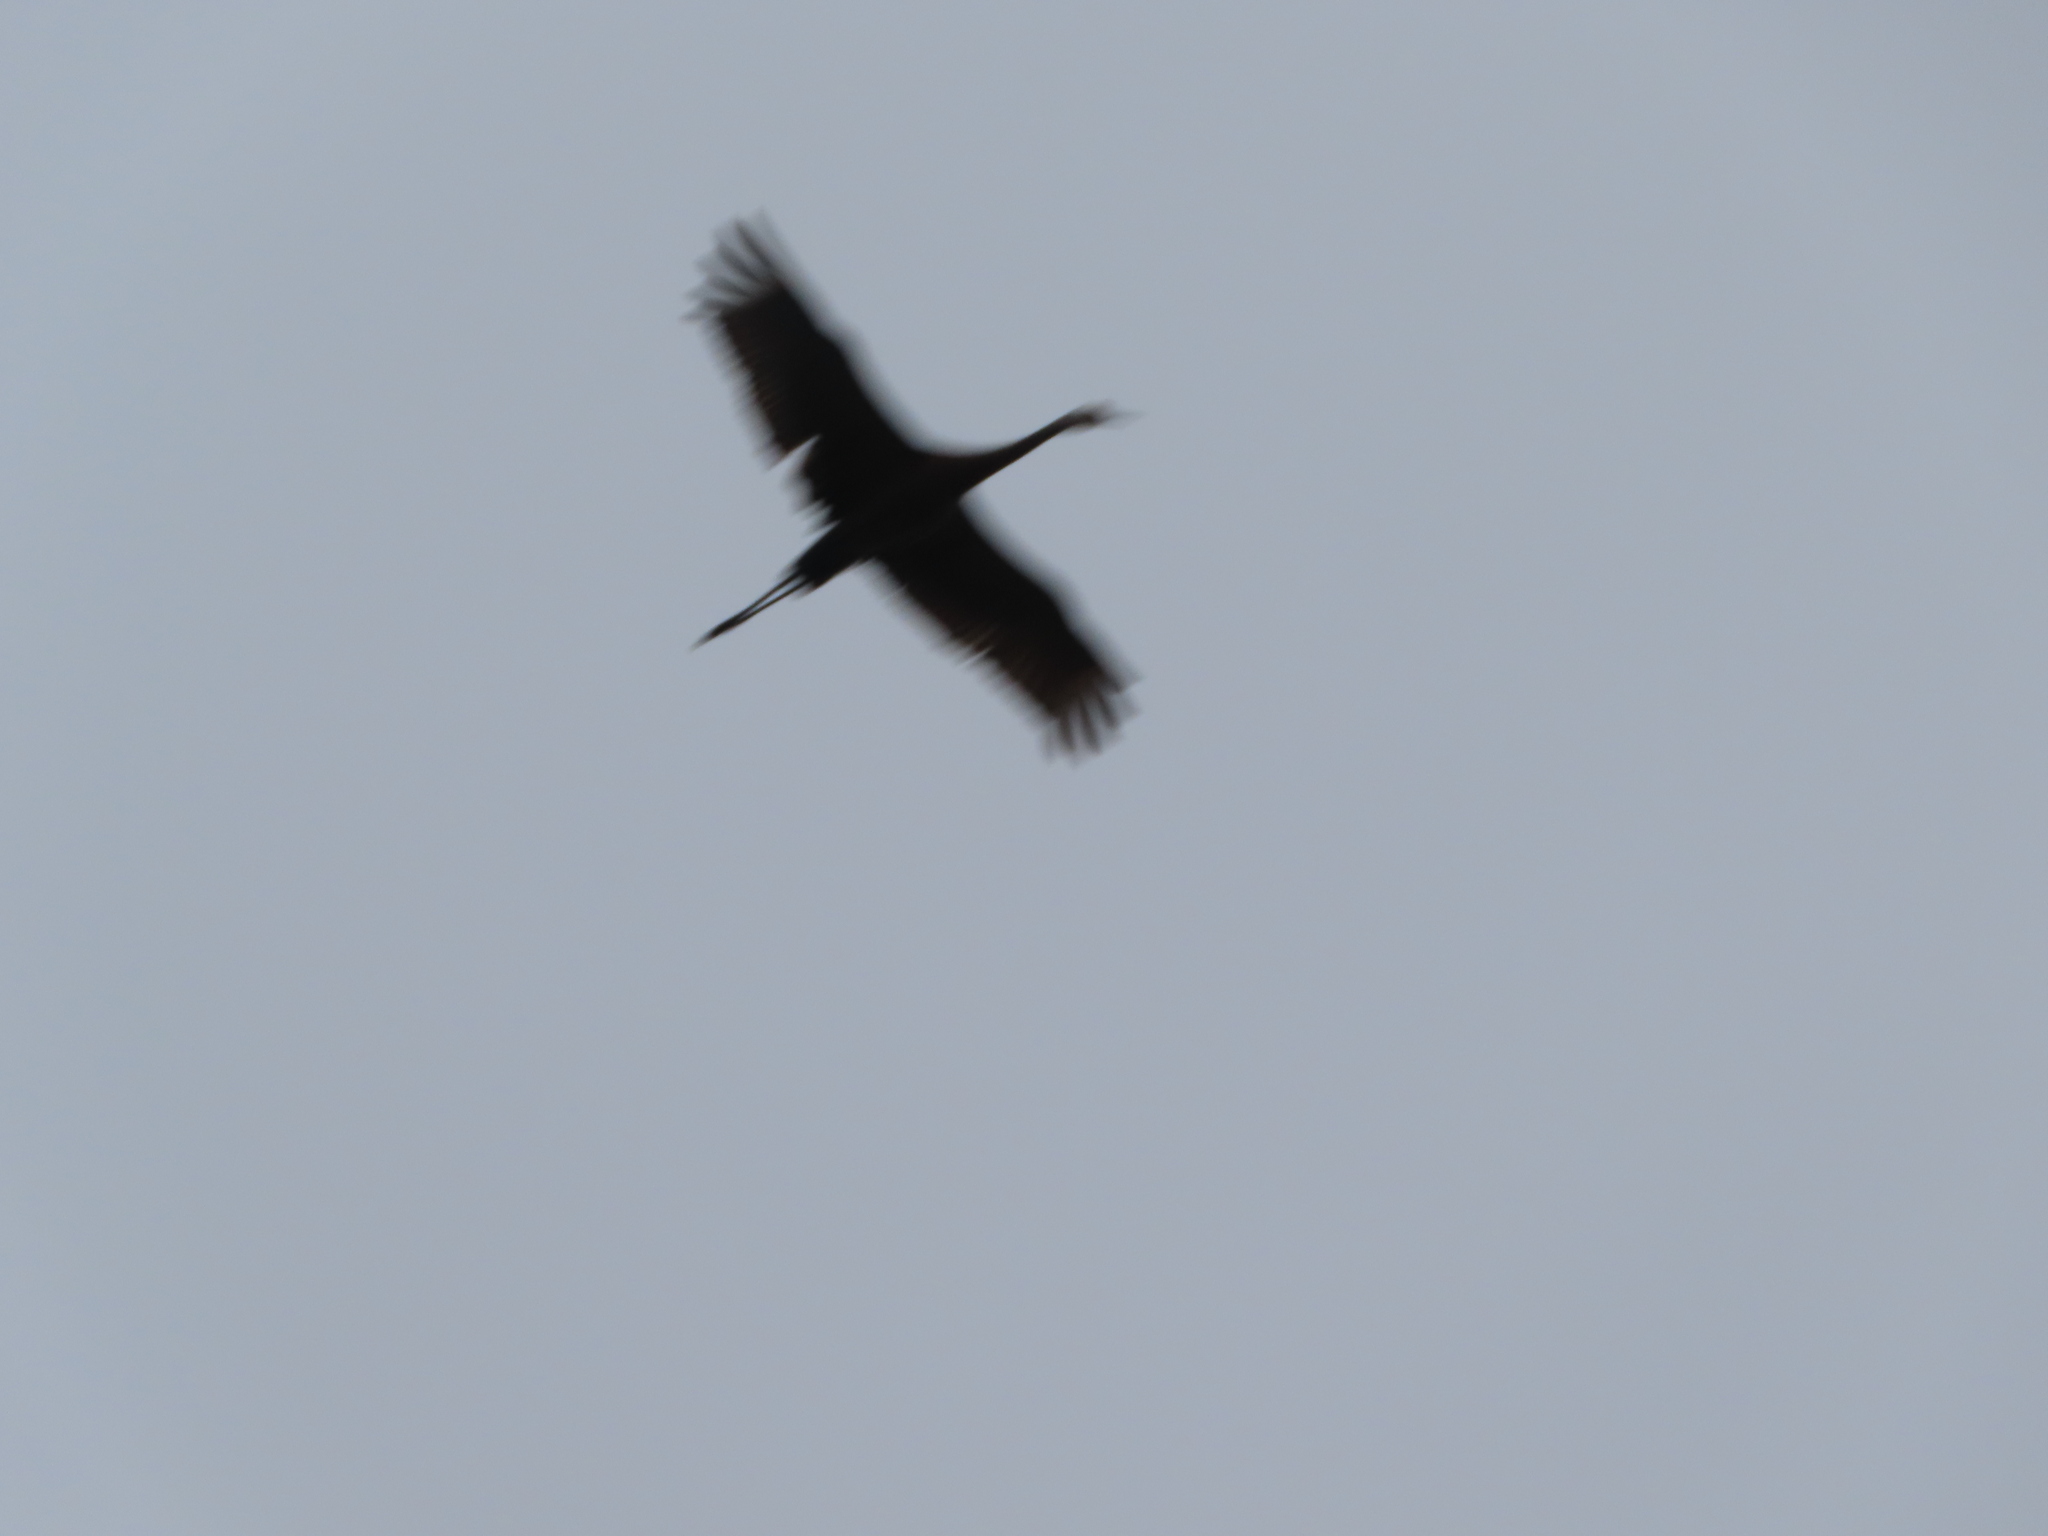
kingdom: Animalia
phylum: Chordata
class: Aves
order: Gruiformes
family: Gruidae
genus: Grus
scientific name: Grus canadensis
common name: Sandhill crane
